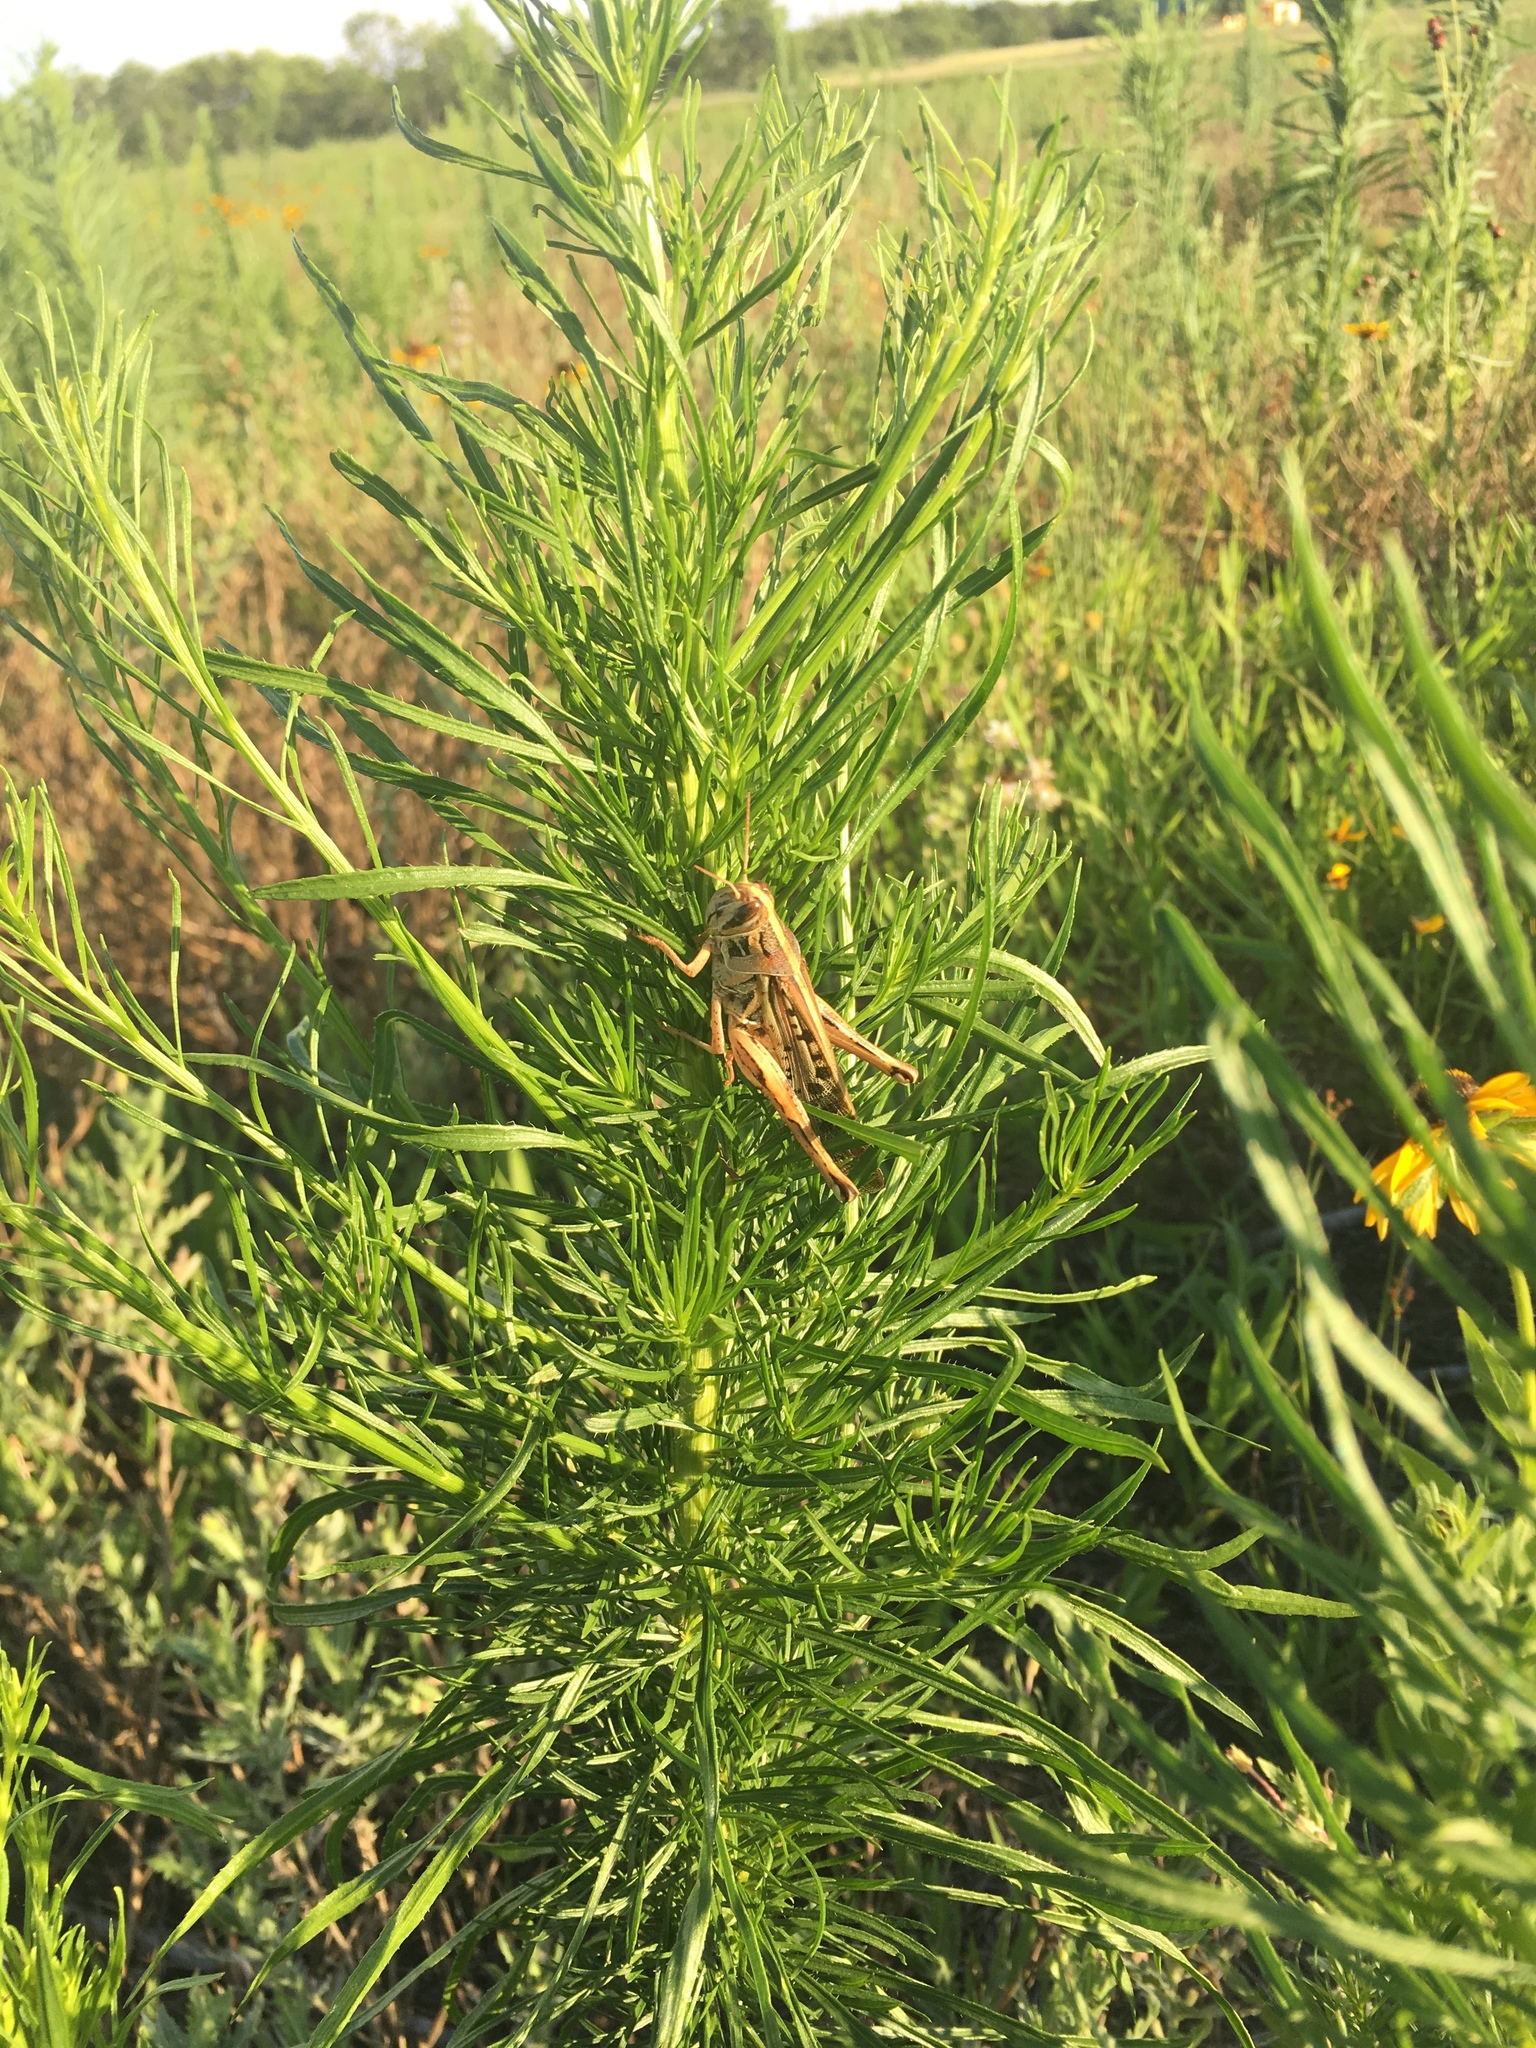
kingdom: Animalia
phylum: Arthropoda
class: Insecta
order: Orthoptera
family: Acrididae
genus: Schistocerca
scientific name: Schistocerca americana
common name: American bird locust
